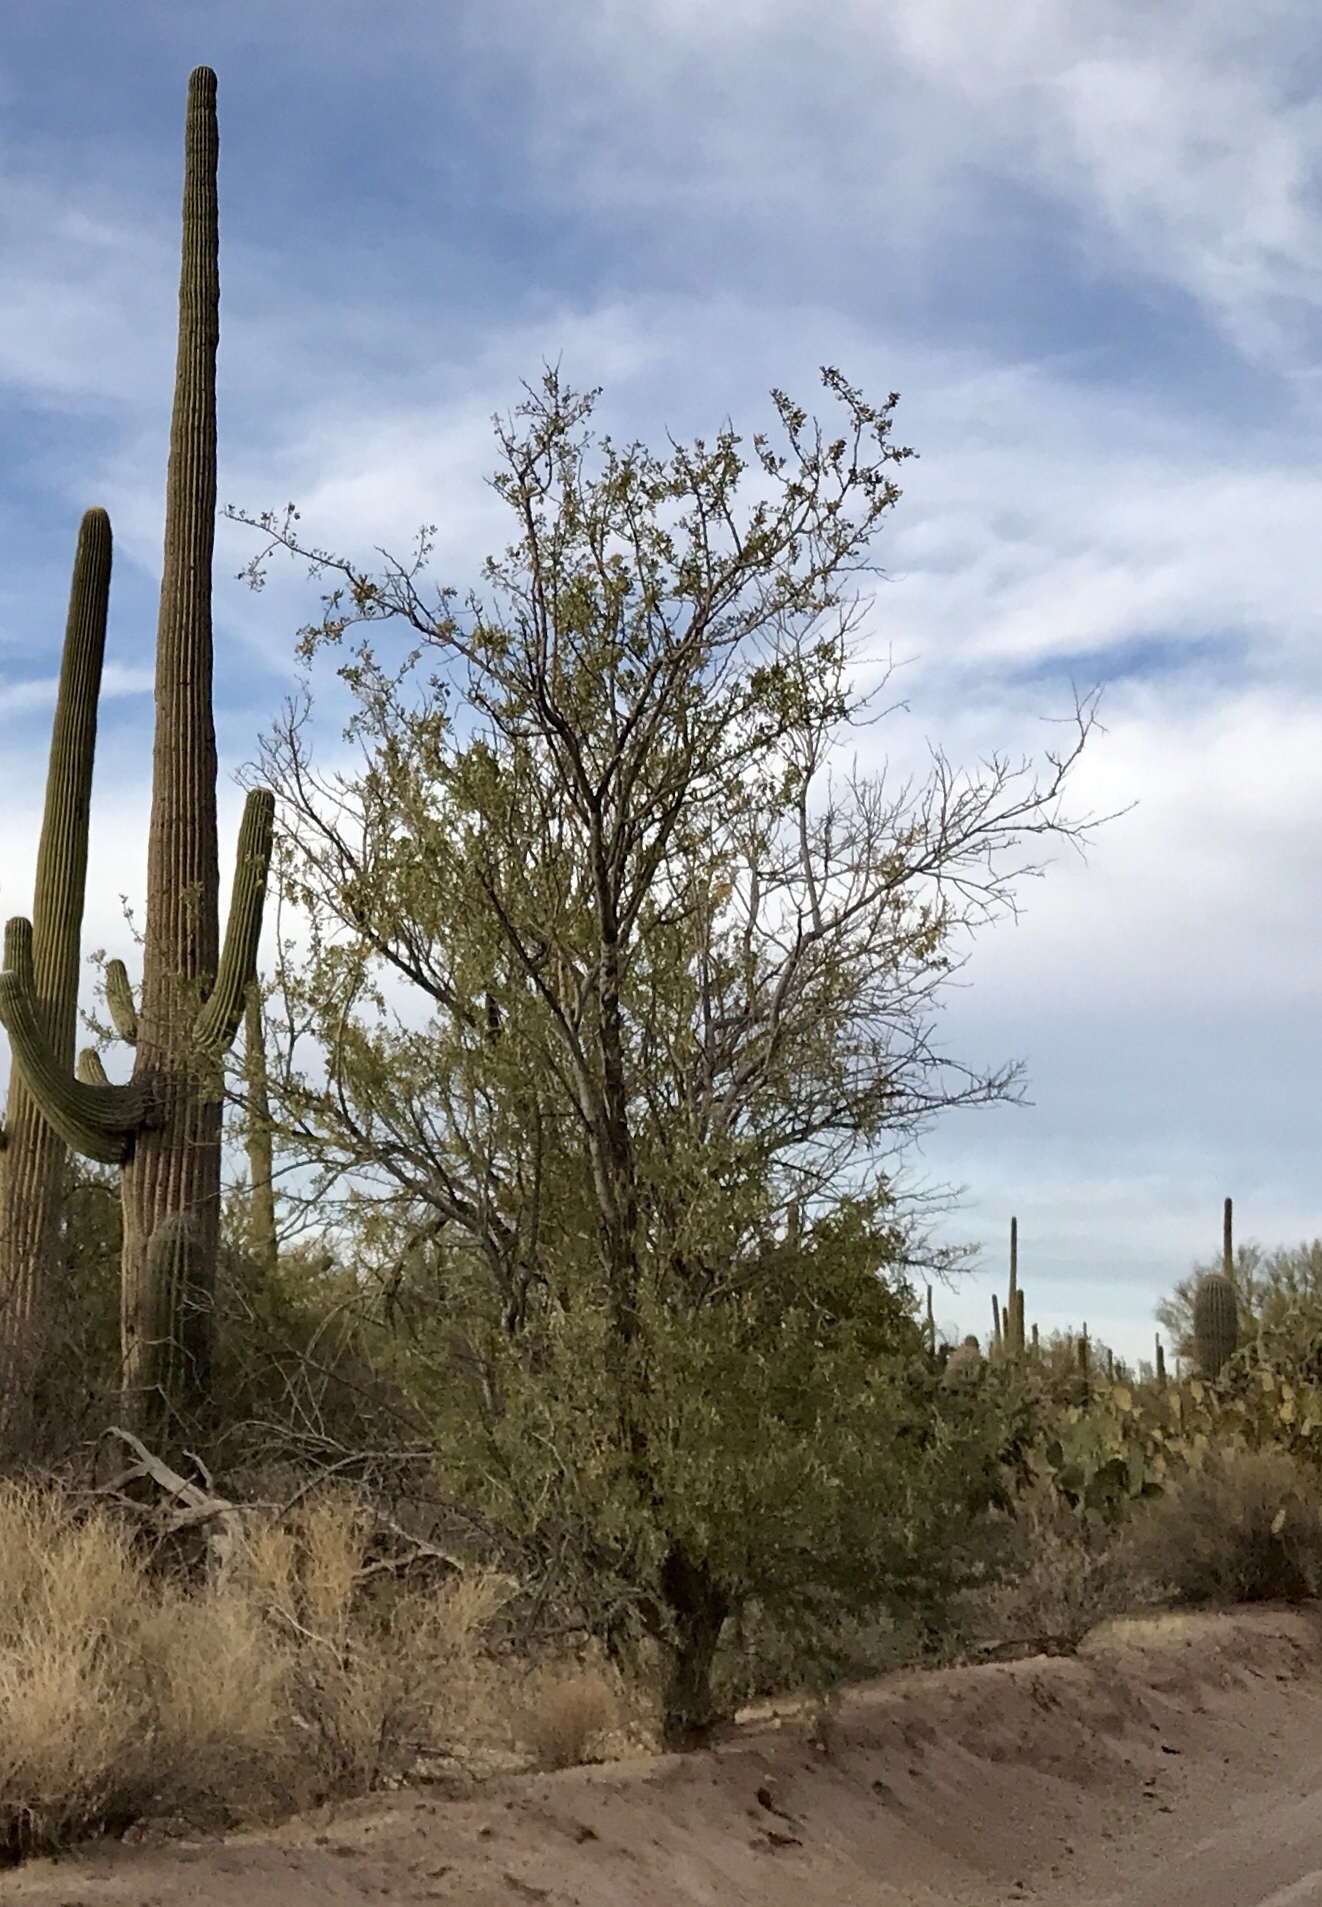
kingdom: Plantae
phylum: Tracheophyta
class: Magnoliopsida
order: Fabales
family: Fabaceae
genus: Olneya
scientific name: Olneya tesota
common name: Desert ironwood
